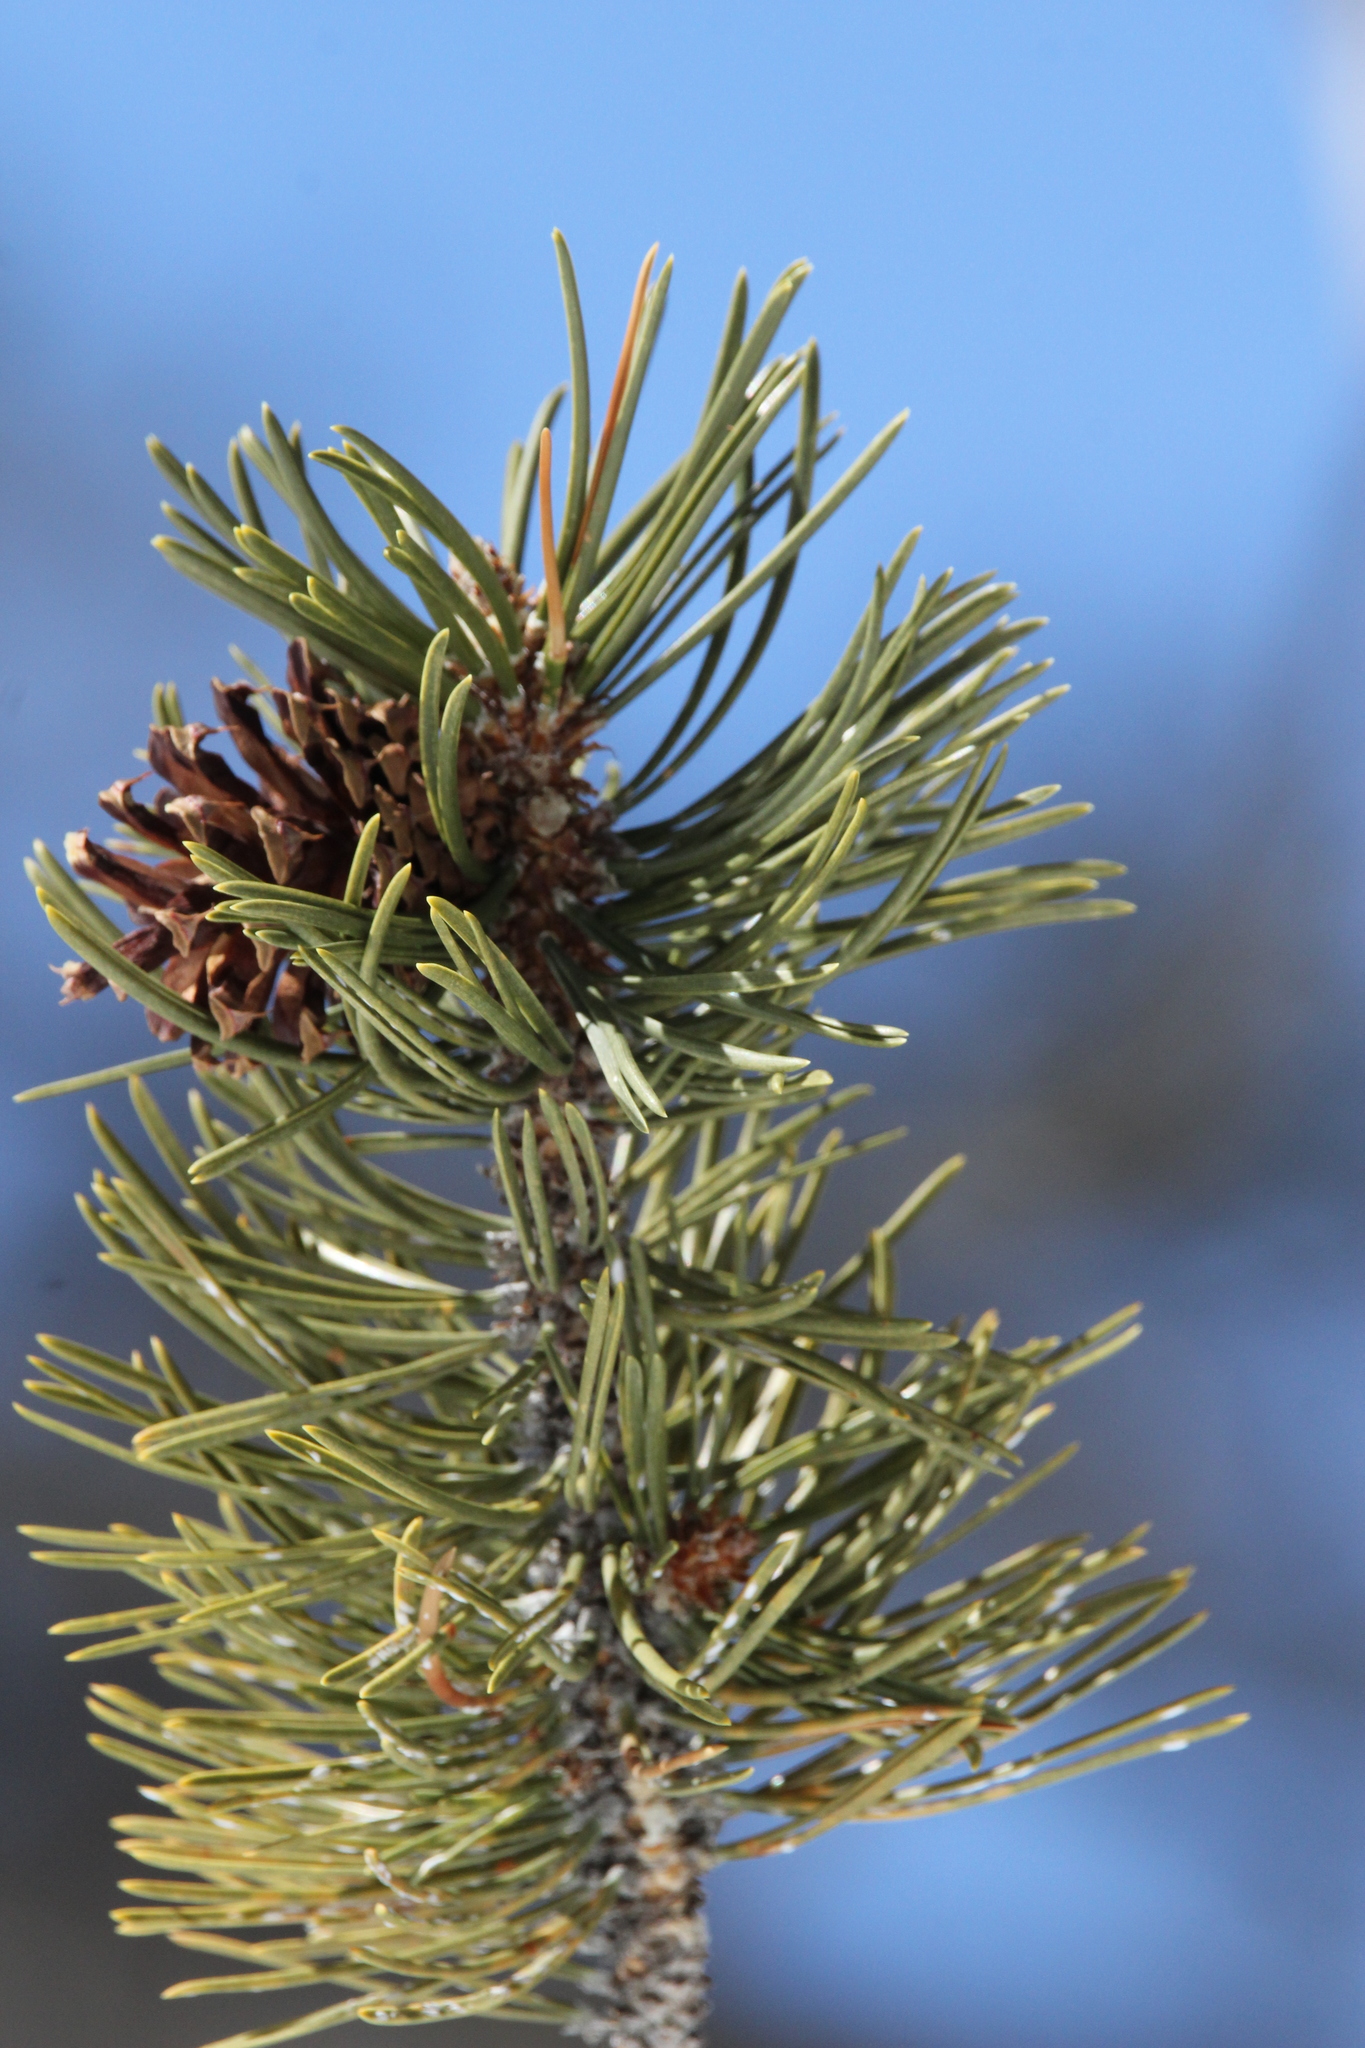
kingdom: Plantae
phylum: Tracheophyta
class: Pinopsida
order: Pinales
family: Pinaceae
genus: Pinus
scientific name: Pinus contorta
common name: Lodgepole pine
